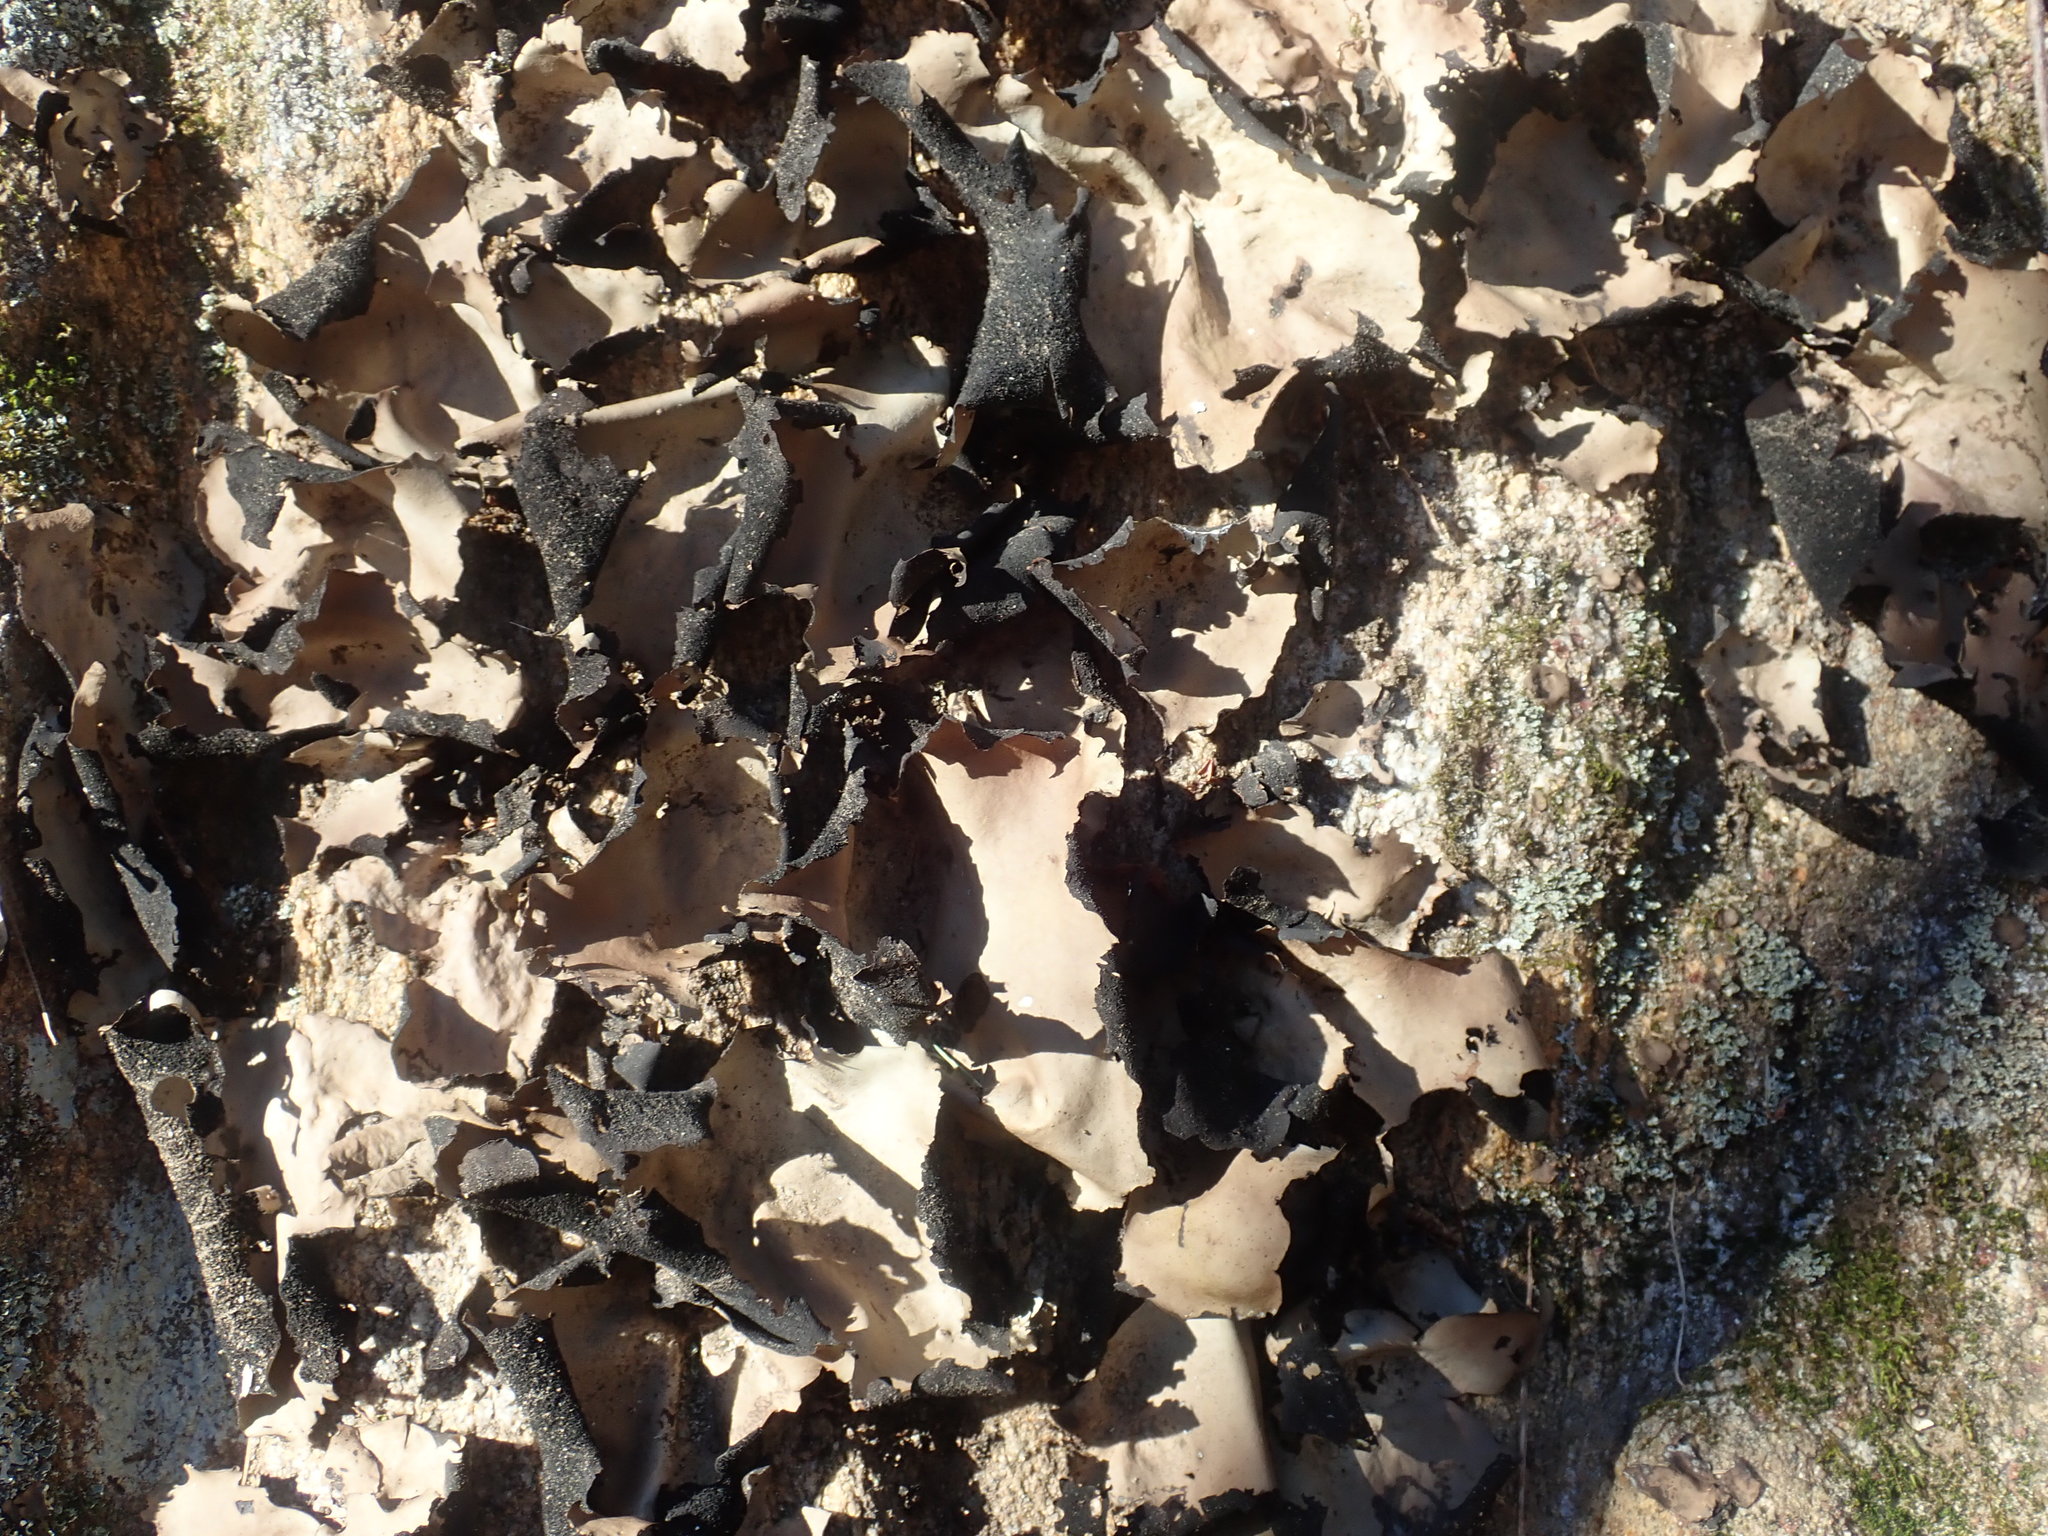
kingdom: Fungi
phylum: Ascomycota
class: Lecanoromycetes
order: Umbilicariales
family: Umbilicariaceae
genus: Umbilicaria
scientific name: Umbilicaria mammulata
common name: Smooth rock tripe
